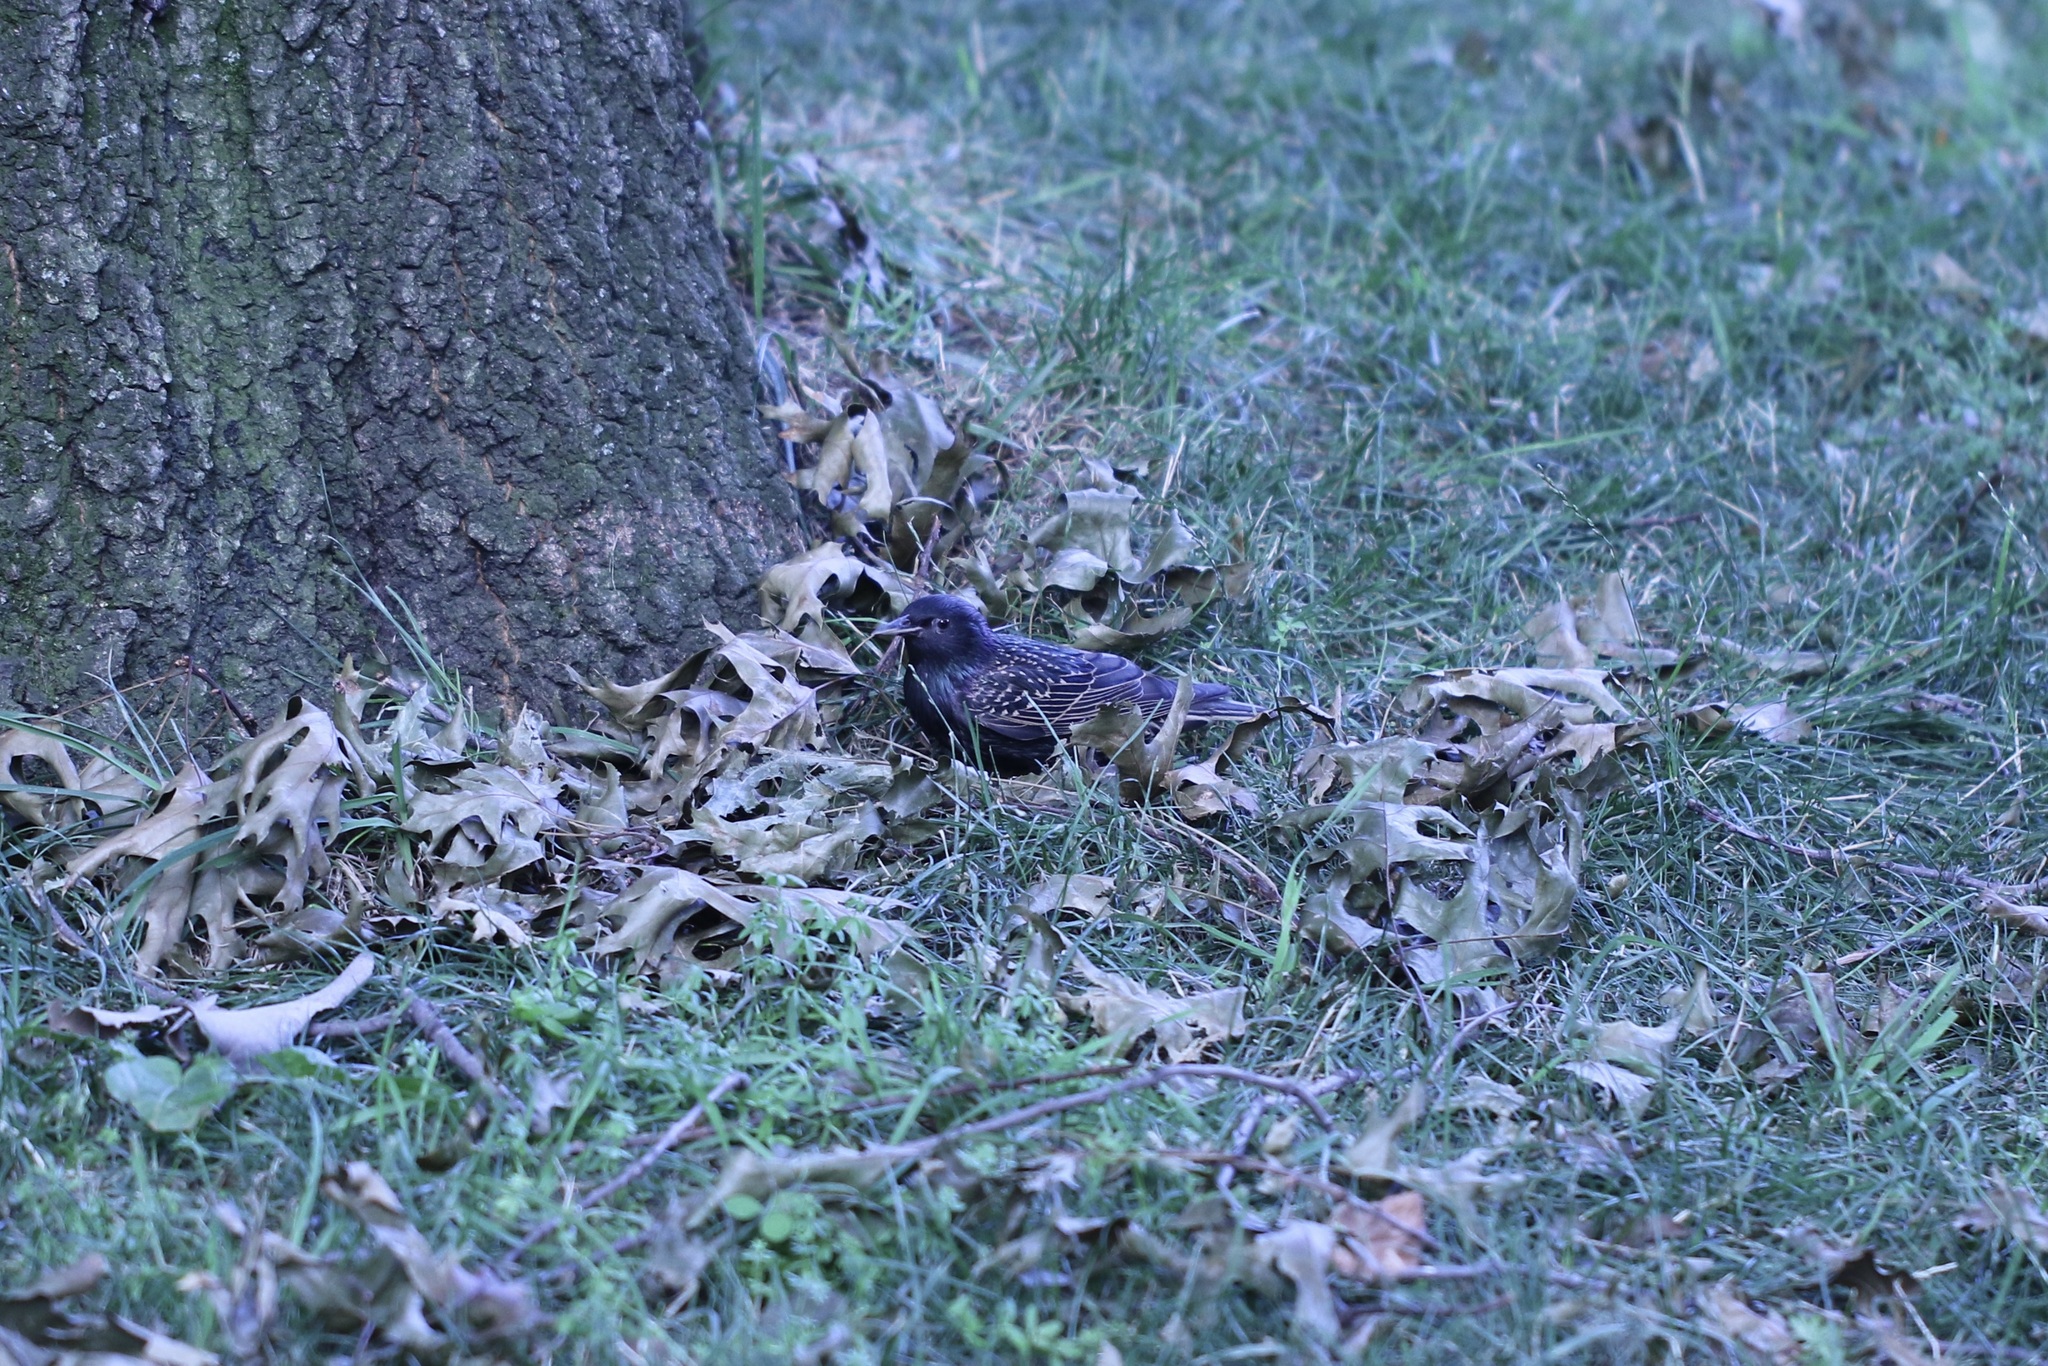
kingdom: Animalia
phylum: Chordata
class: Aves
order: Passeriformes
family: Sturnidae
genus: Sturnus
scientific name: Sturnus vulgaris
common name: Common starling
